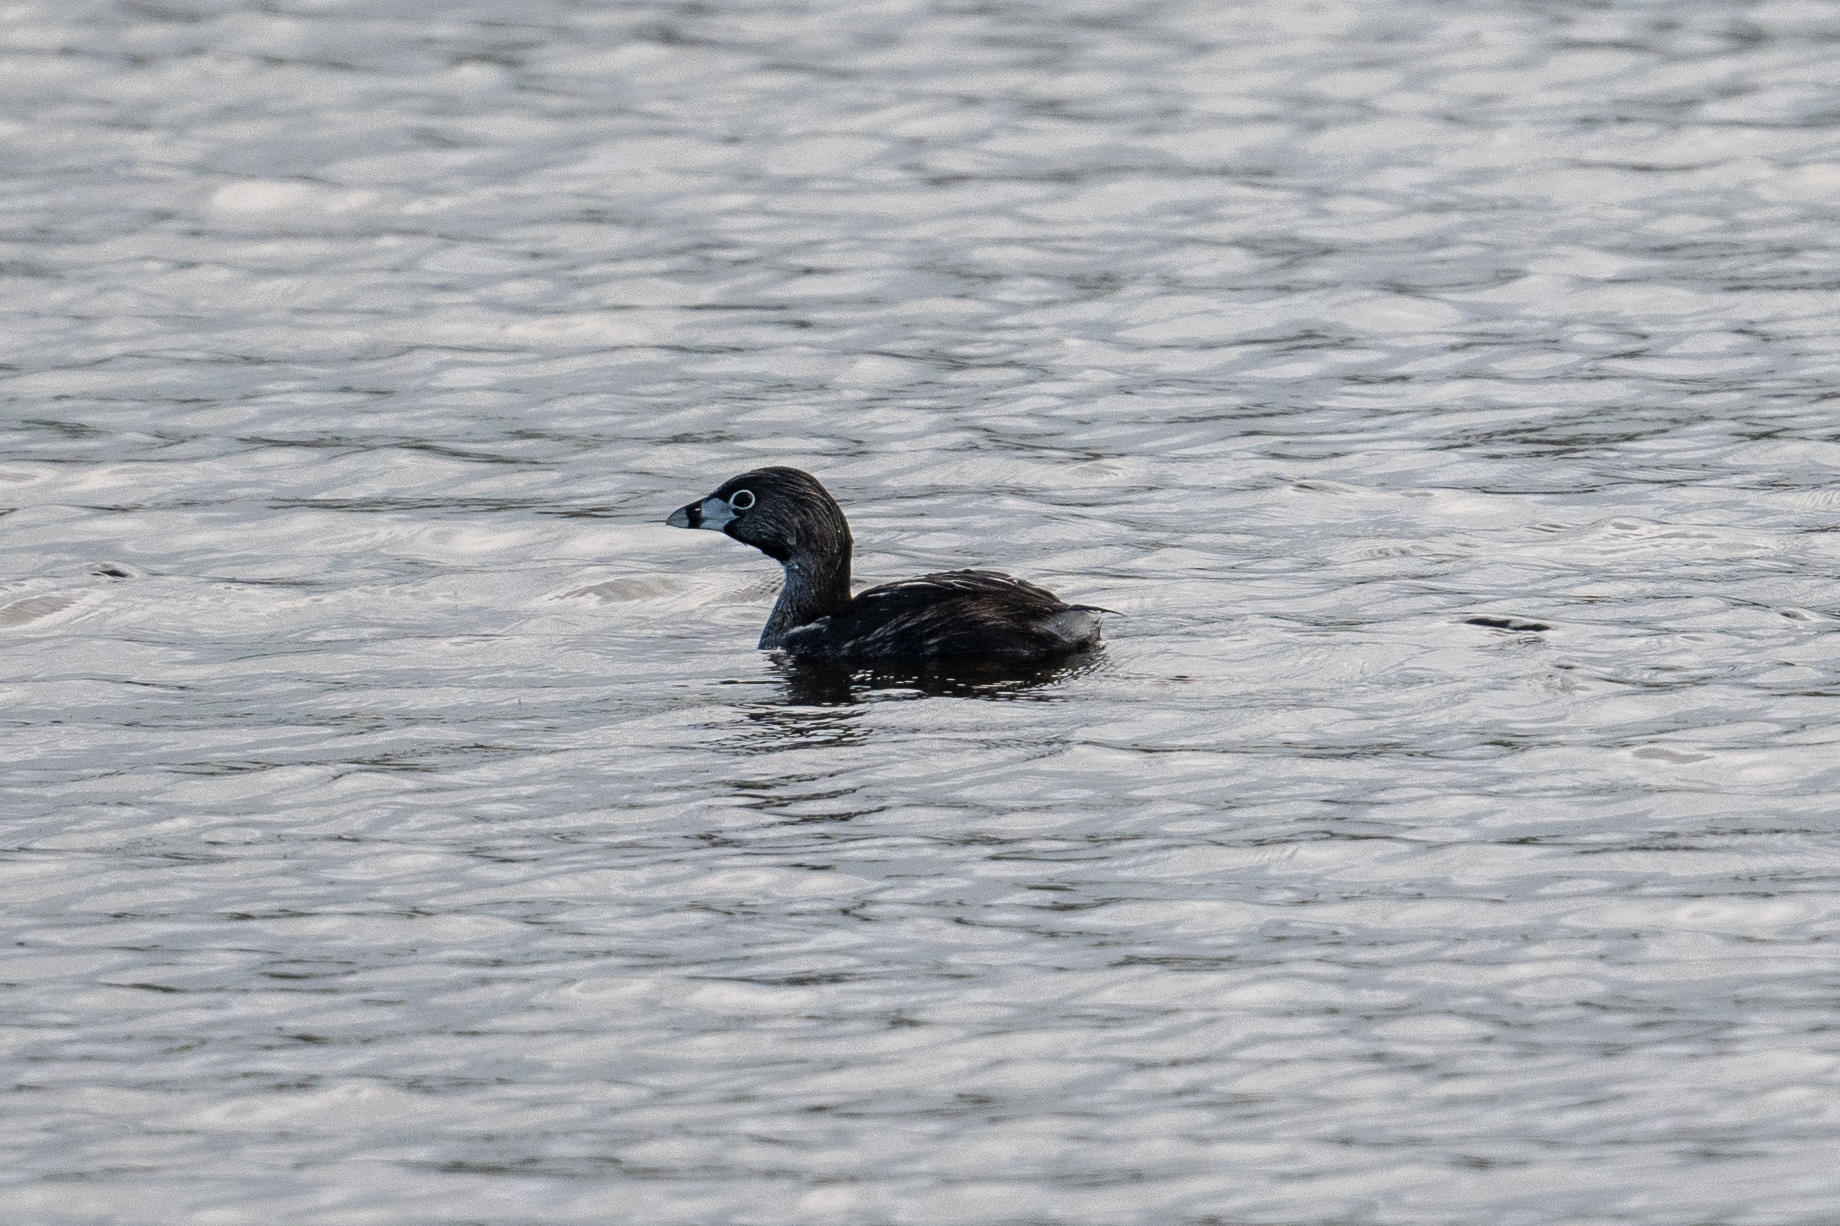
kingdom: Animalia
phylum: Chordata
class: Aves
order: Podicipediformes
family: Podicipedidae
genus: Podilymbus
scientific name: Podilymbus podiceps
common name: Pied-billed grebe
